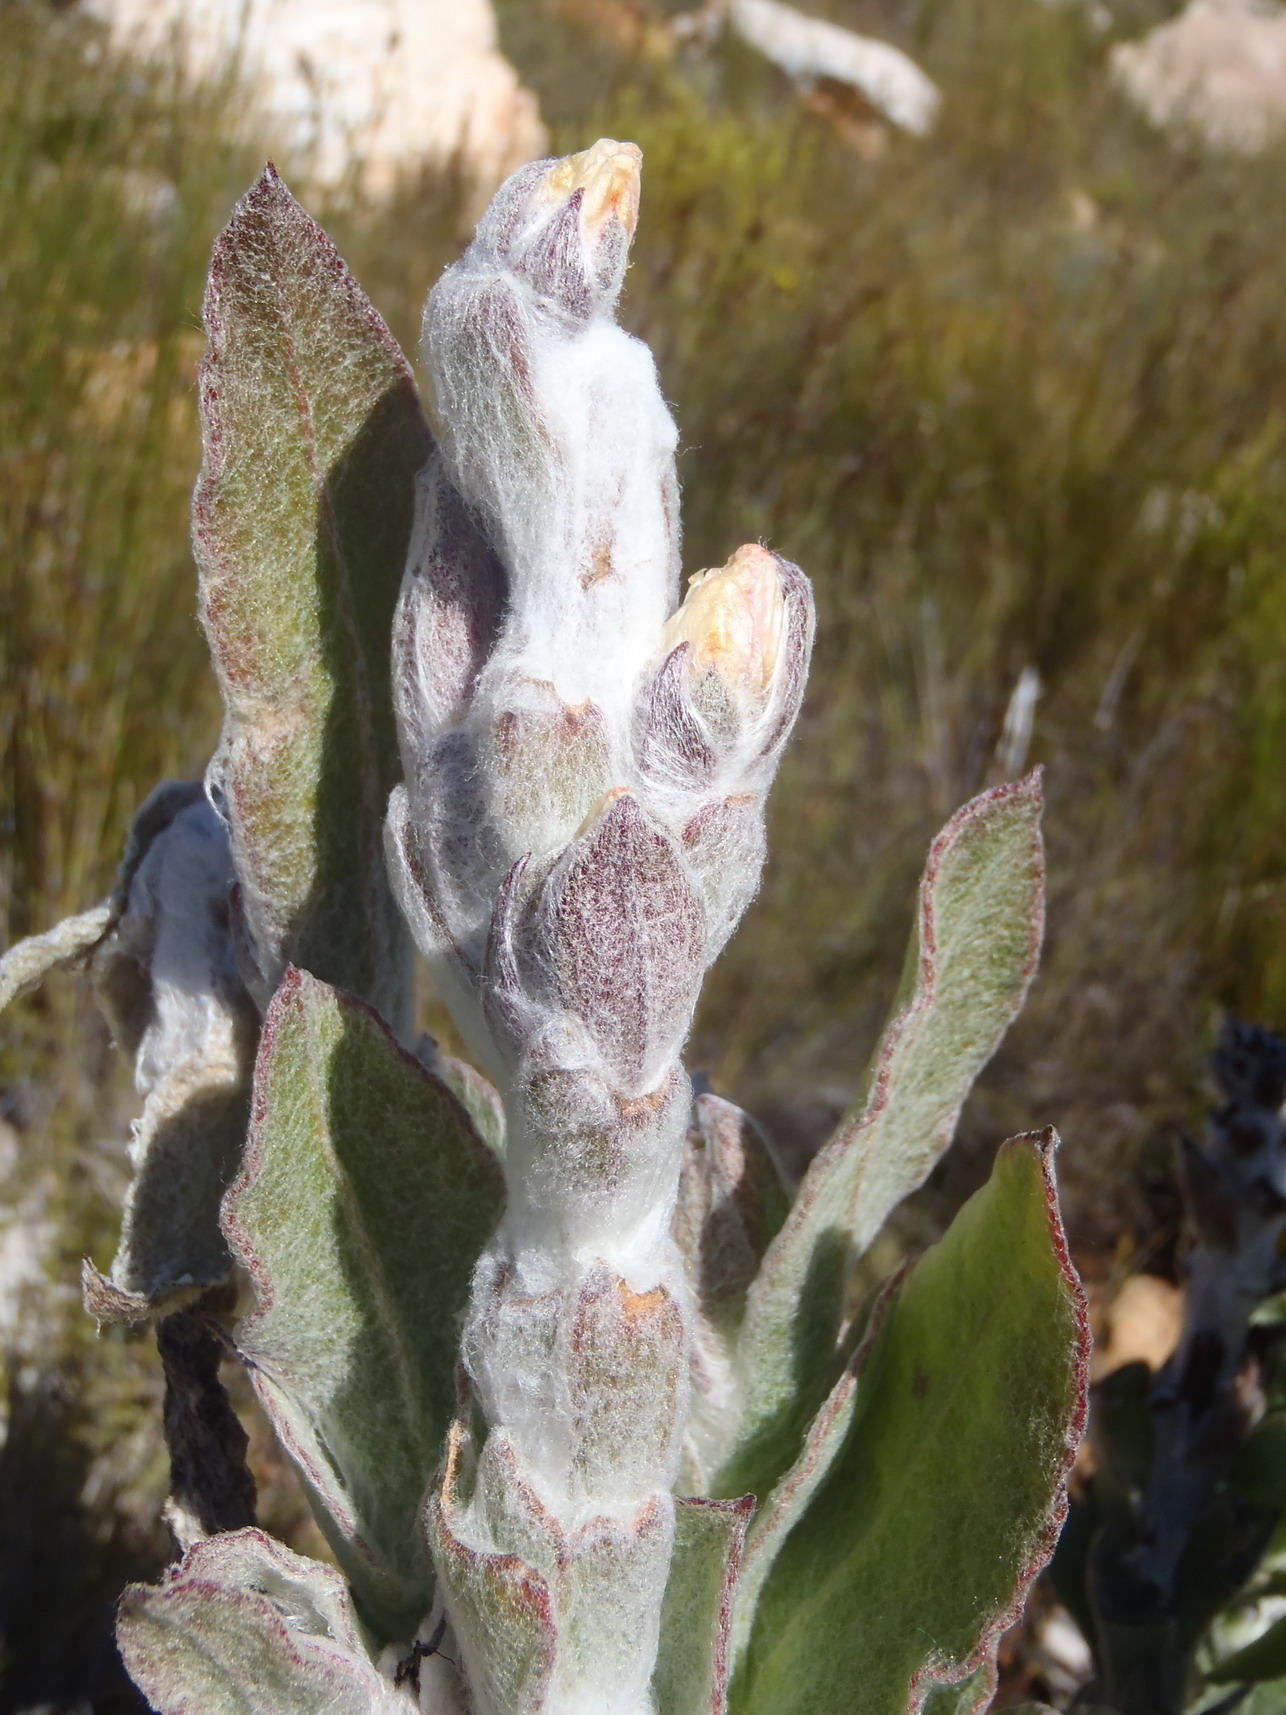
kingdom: Plantae
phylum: Tracheophyta
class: Magnoliopsida
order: Asterales
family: Asteraceae
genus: Syncarpha
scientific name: Syncarpha milleflora
